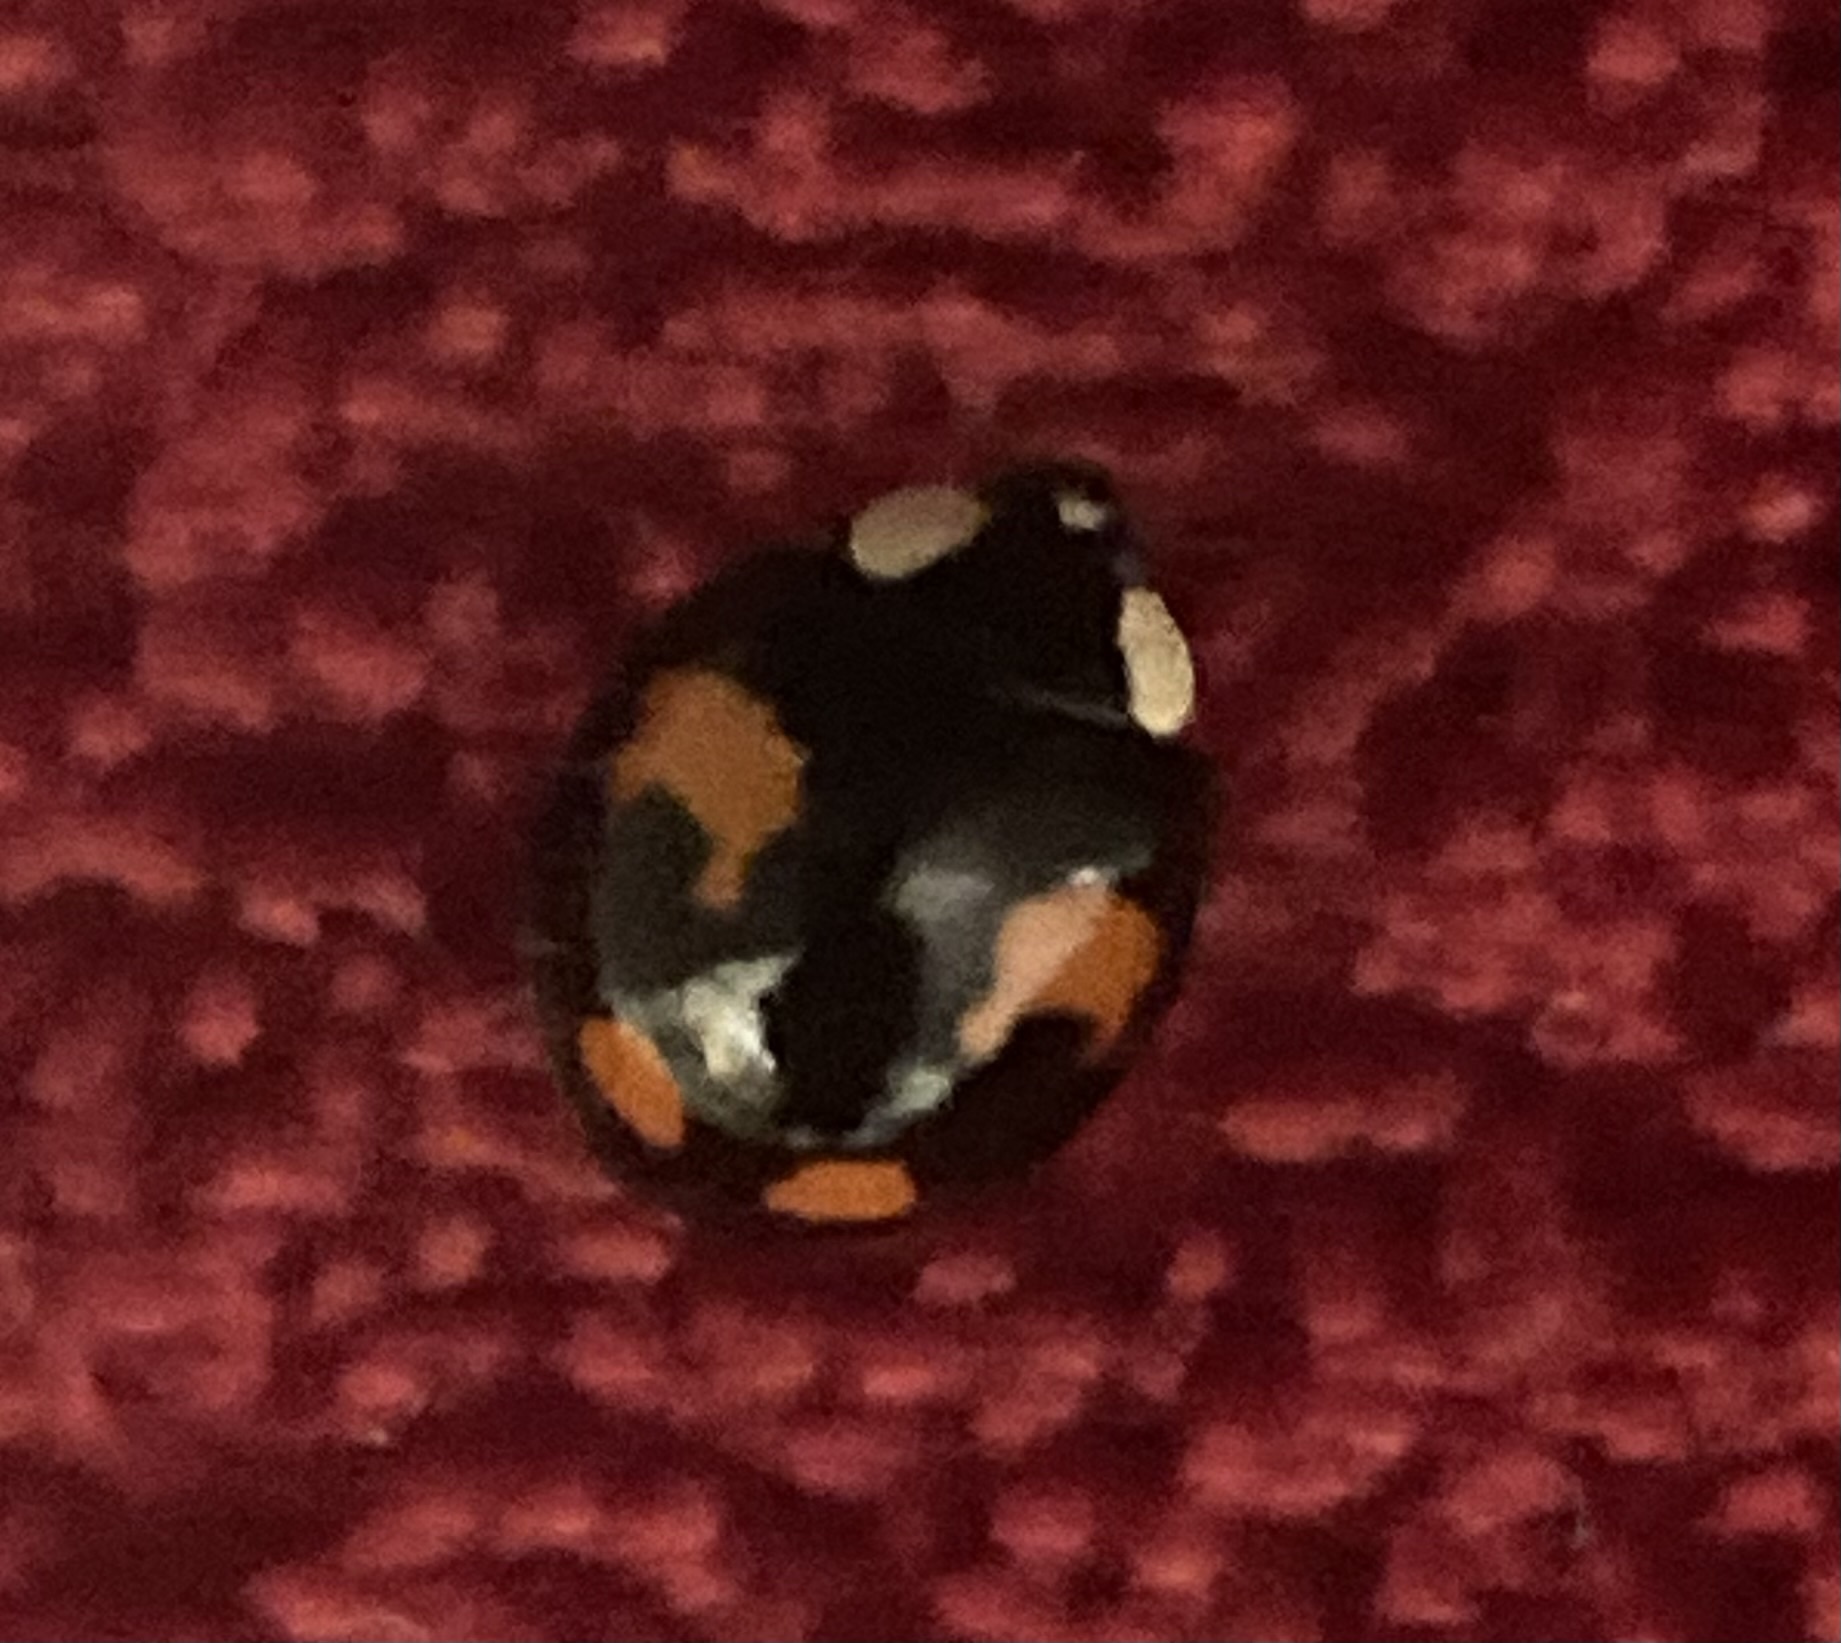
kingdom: Animalia
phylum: Arthropoda
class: Insecta
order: Coleoptera
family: Coccinellidae
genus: Harmonia
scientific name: Harmonia axyridis
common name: Harlequin ladybird
